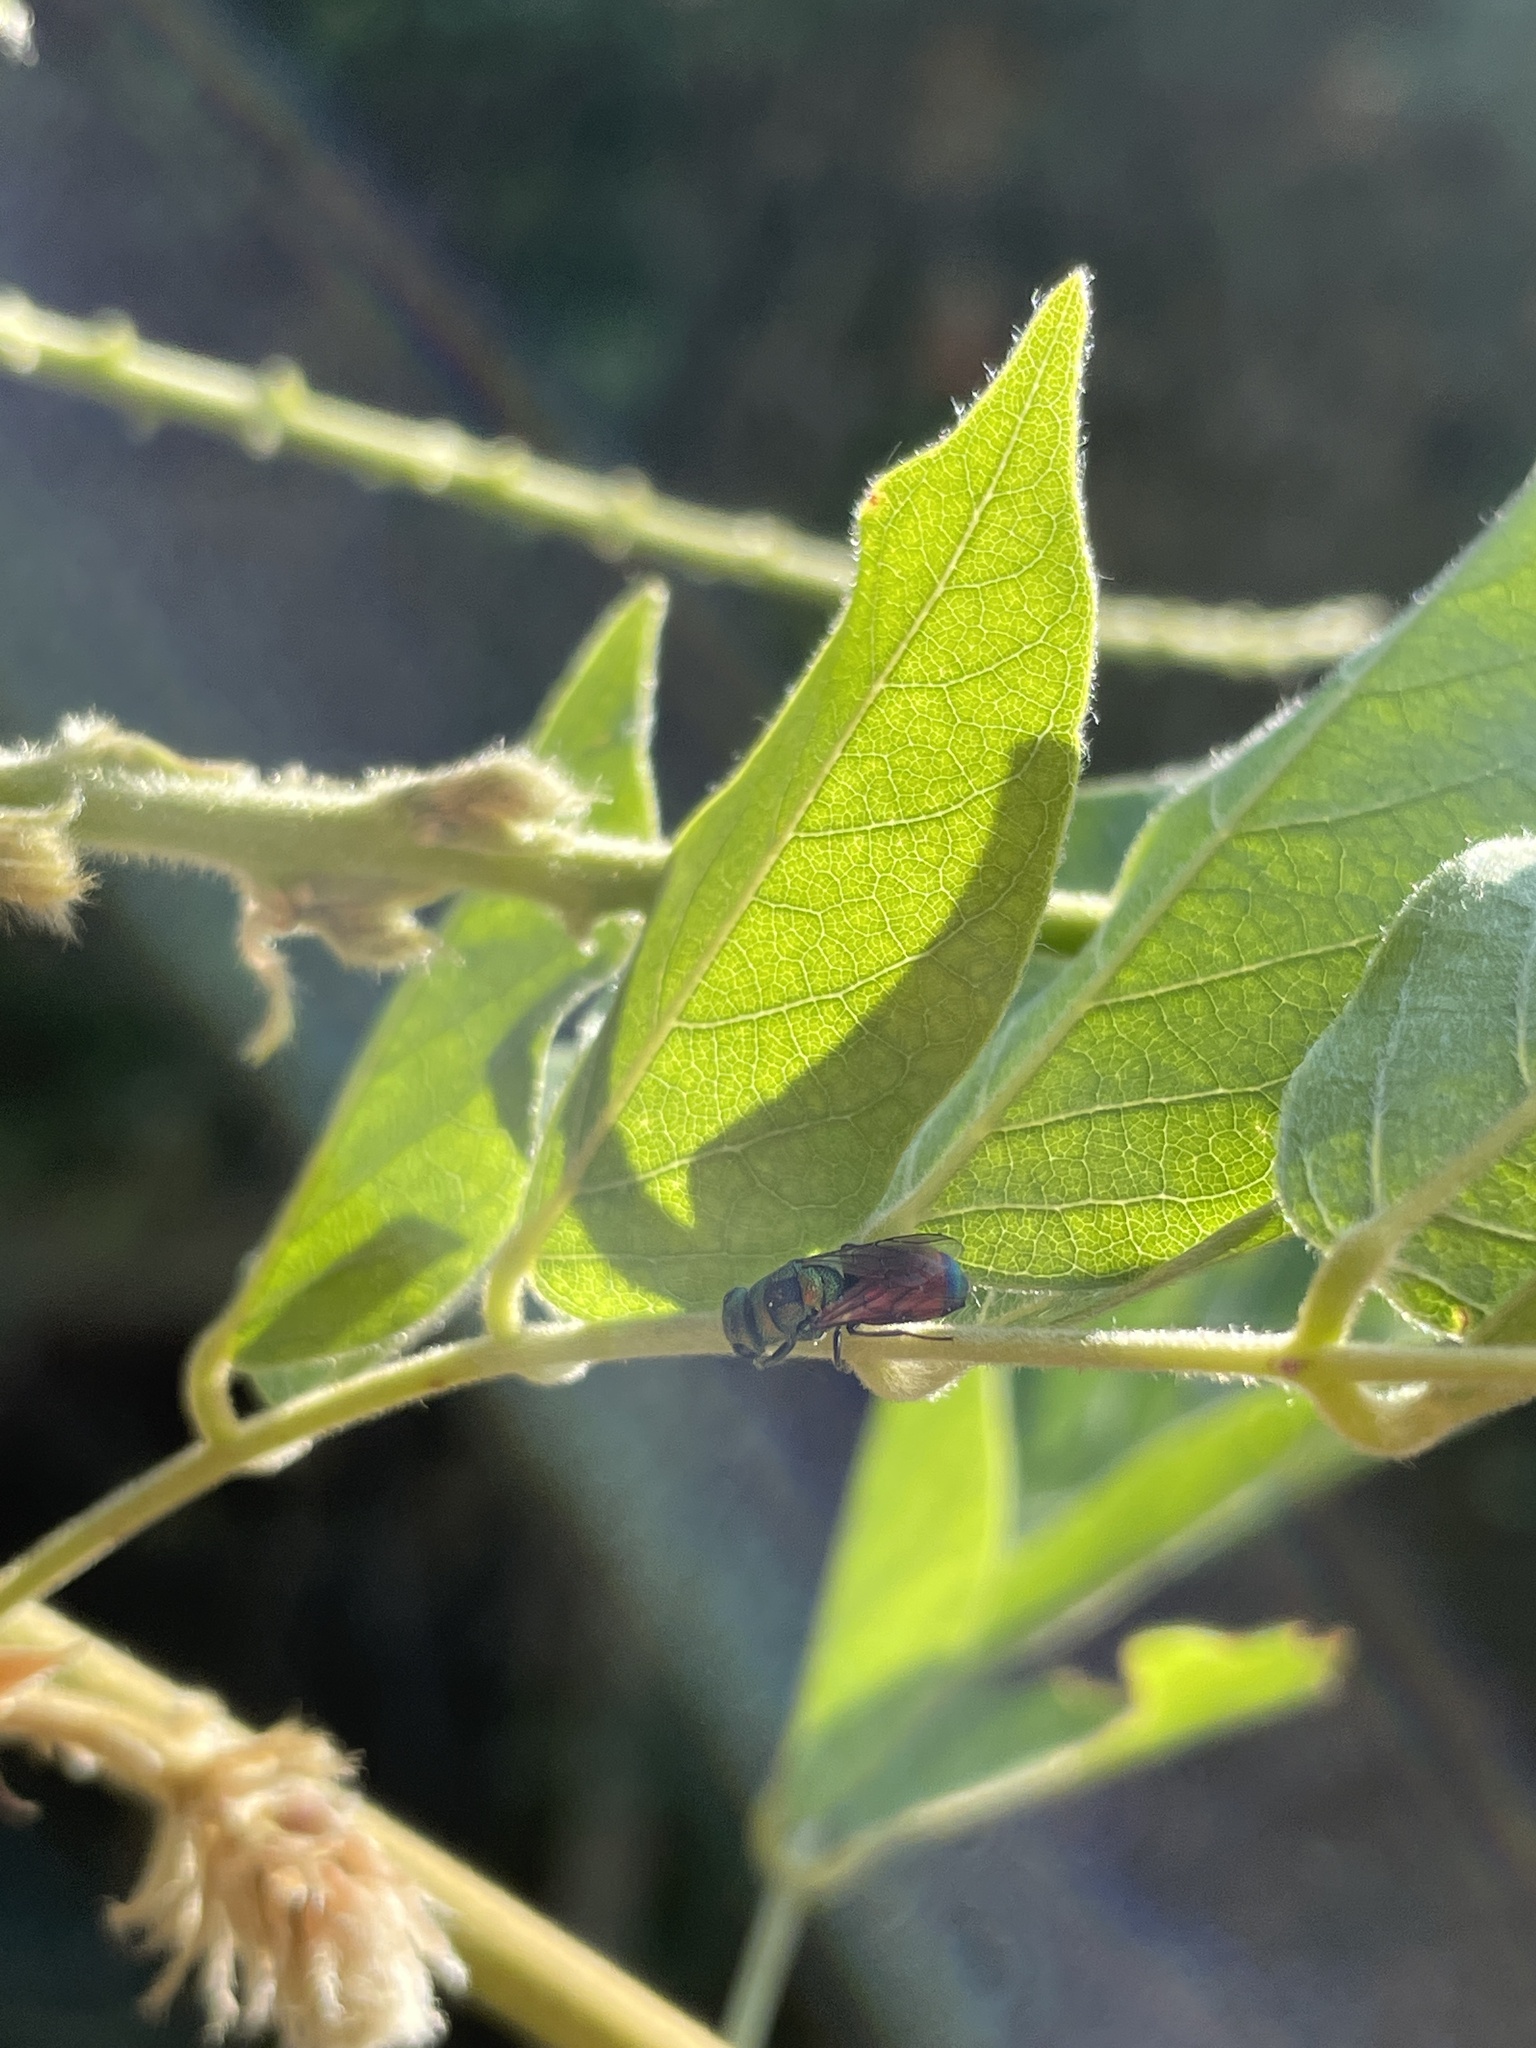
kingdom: Animalia
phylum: Arthropoda
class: Insecta
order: Hymenoptera
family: Chrysididae
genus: Chrysis
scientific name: Chrysis
